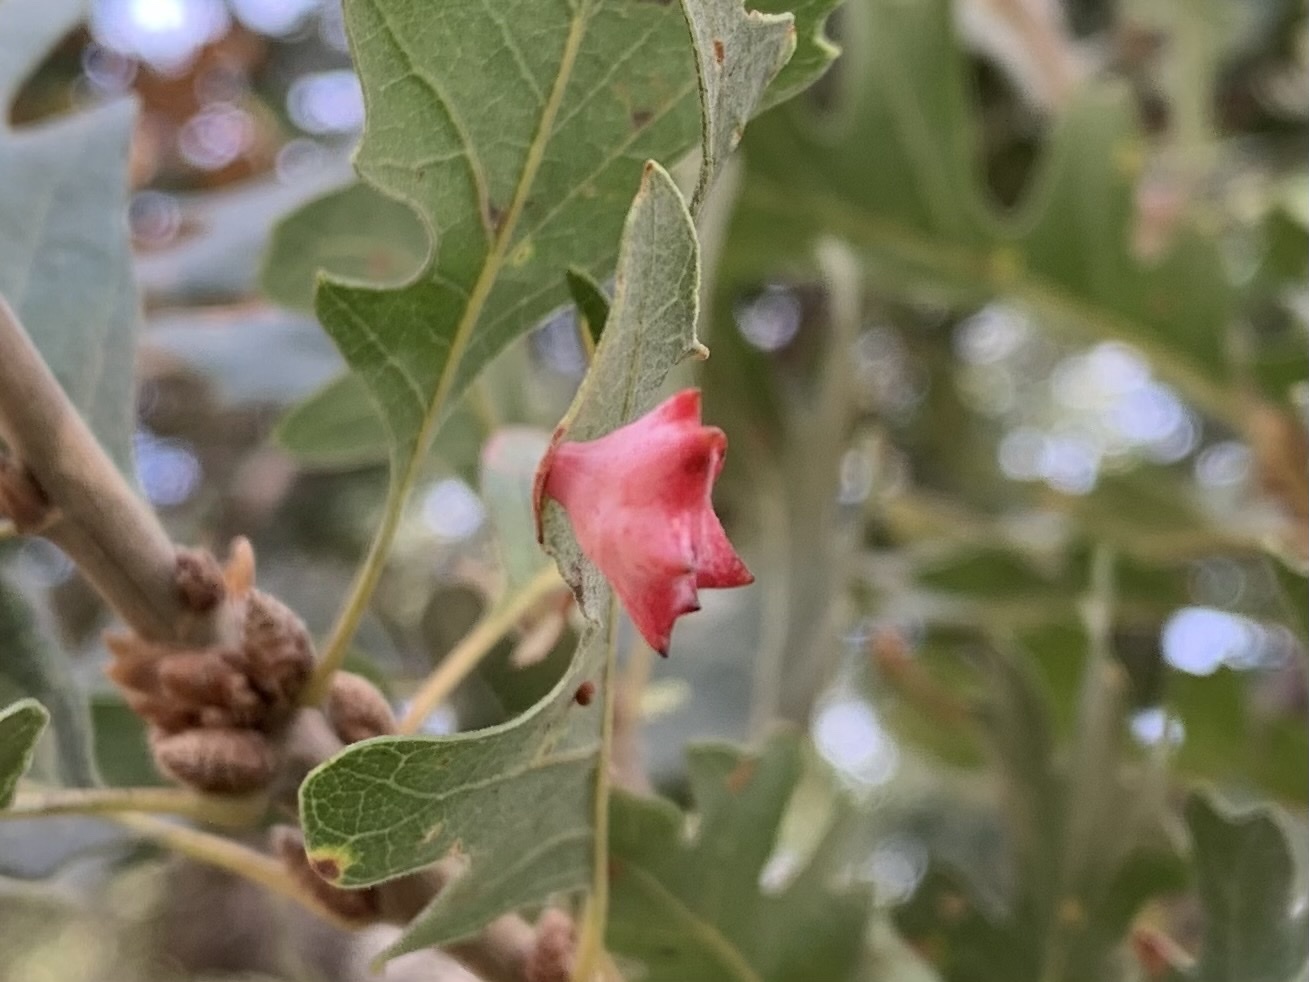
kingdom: Animalia
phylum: Arthropoda
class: Insecta
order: Hymenoptera
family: Cynipidae
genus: Cynips
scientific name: Cynips douglasi
